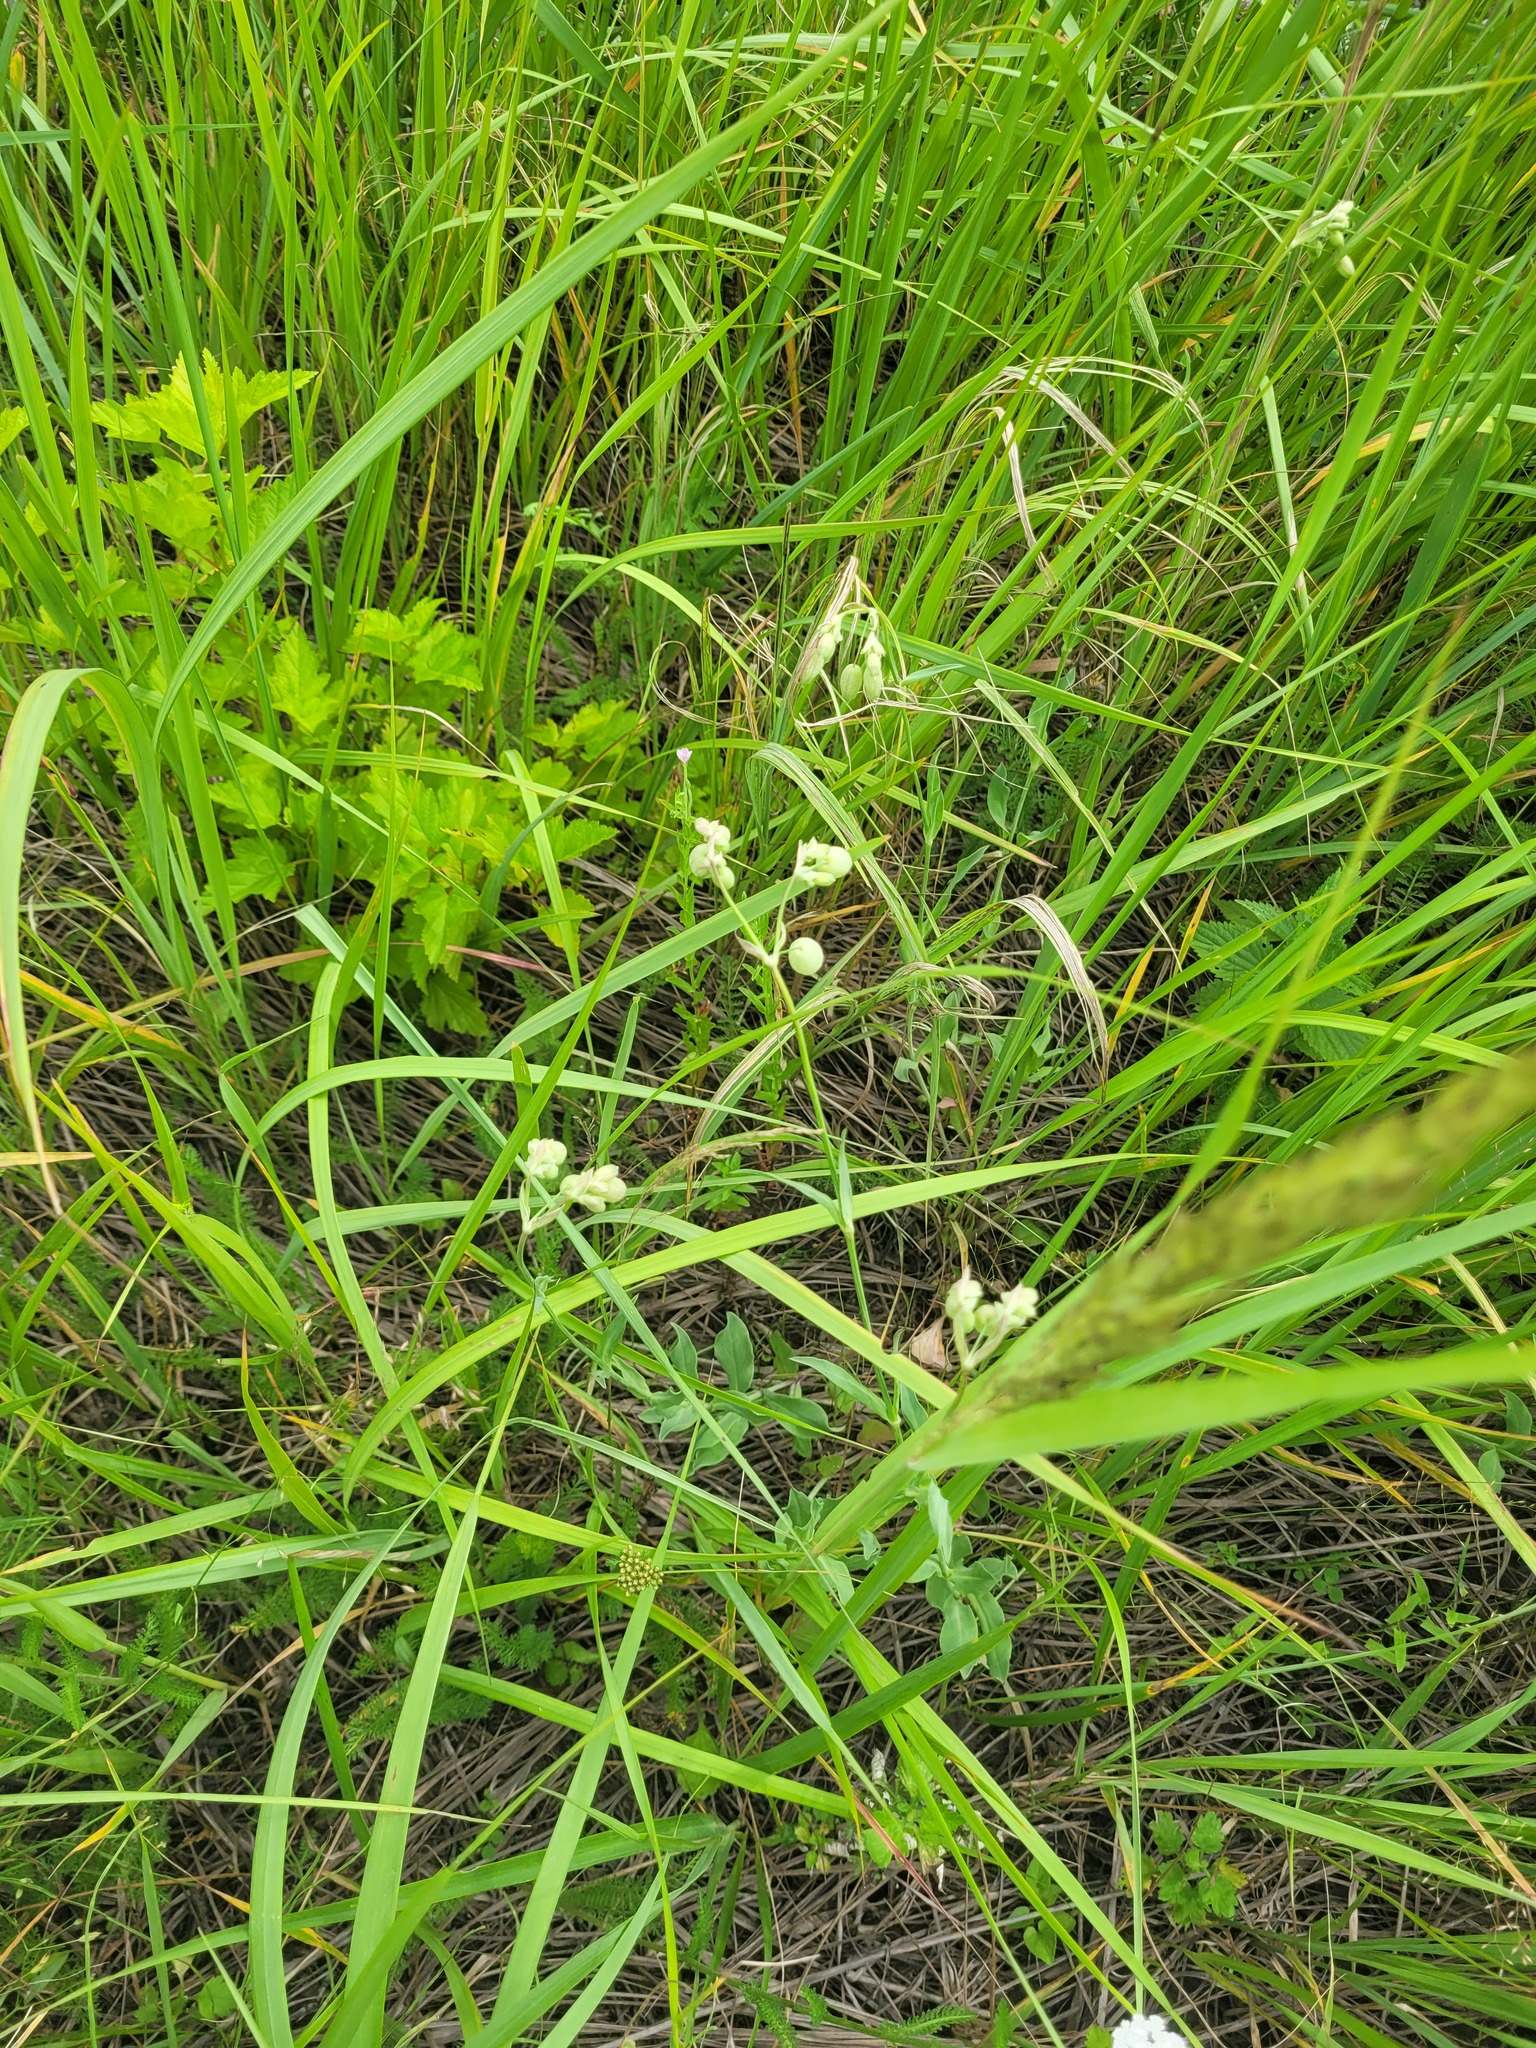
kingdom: Plantae
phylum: Tracheophyta
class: Magnoliopsida
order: Caryophyllales
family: Caryophyllaceae
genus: Silene
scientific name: Silene vulgaris
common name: Bladder campion
